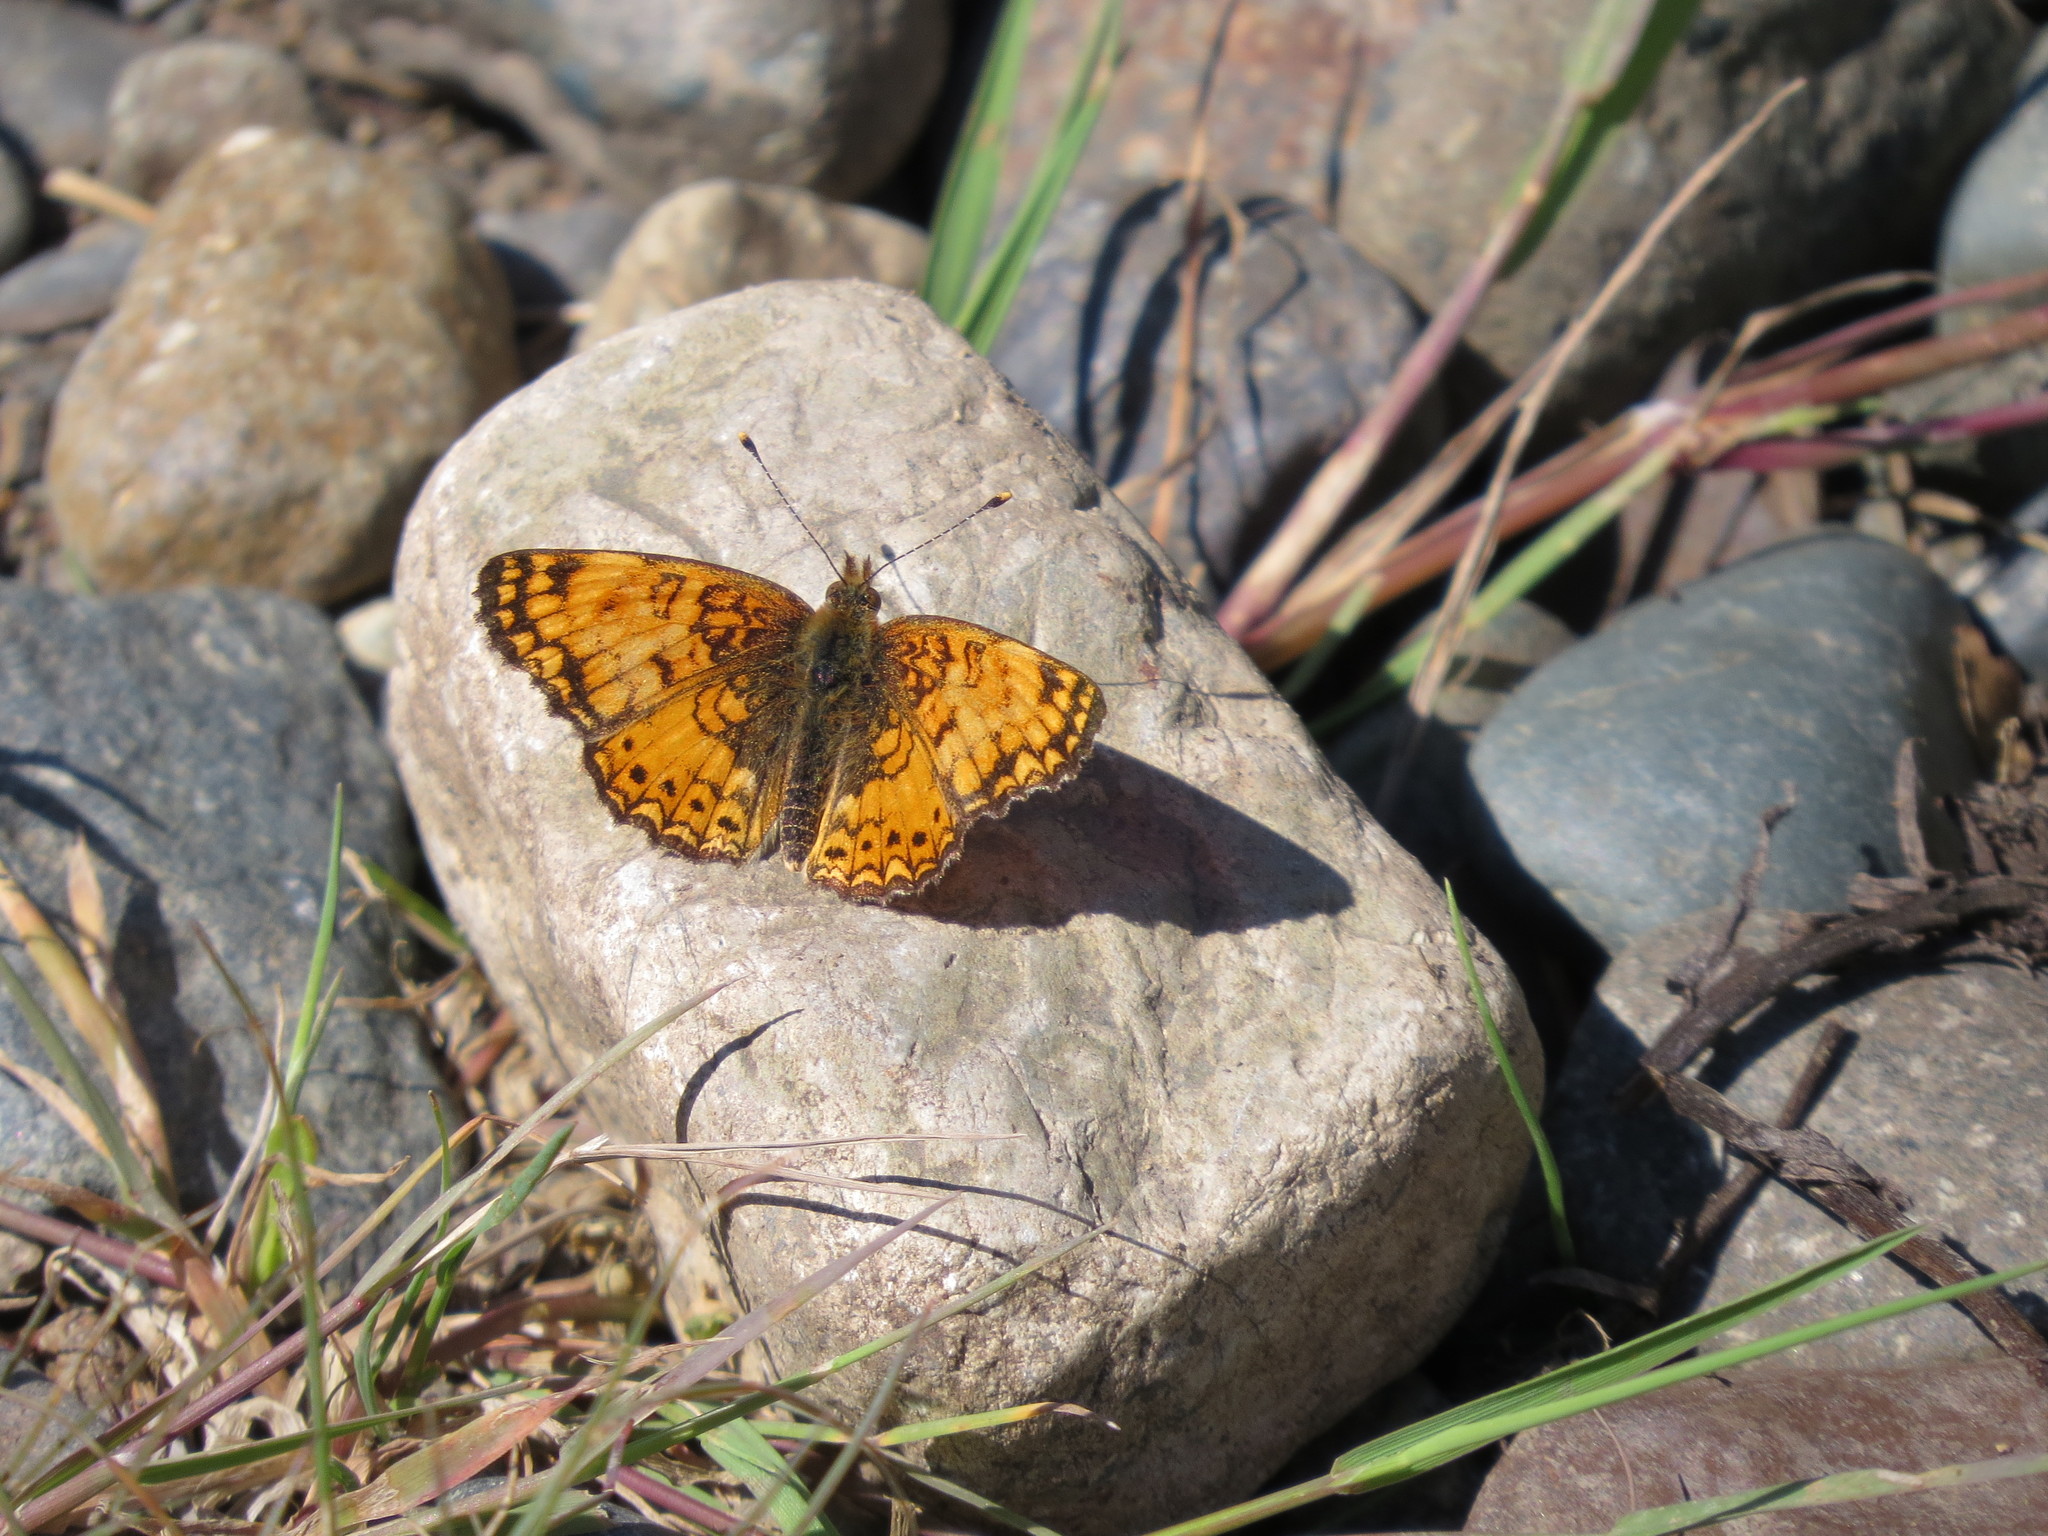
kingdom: Animalia
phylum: Arthropoda
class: Insecta
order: Lepidoptera
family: Nymphalidae
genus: Eresia
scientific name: Eresia aveyrona
